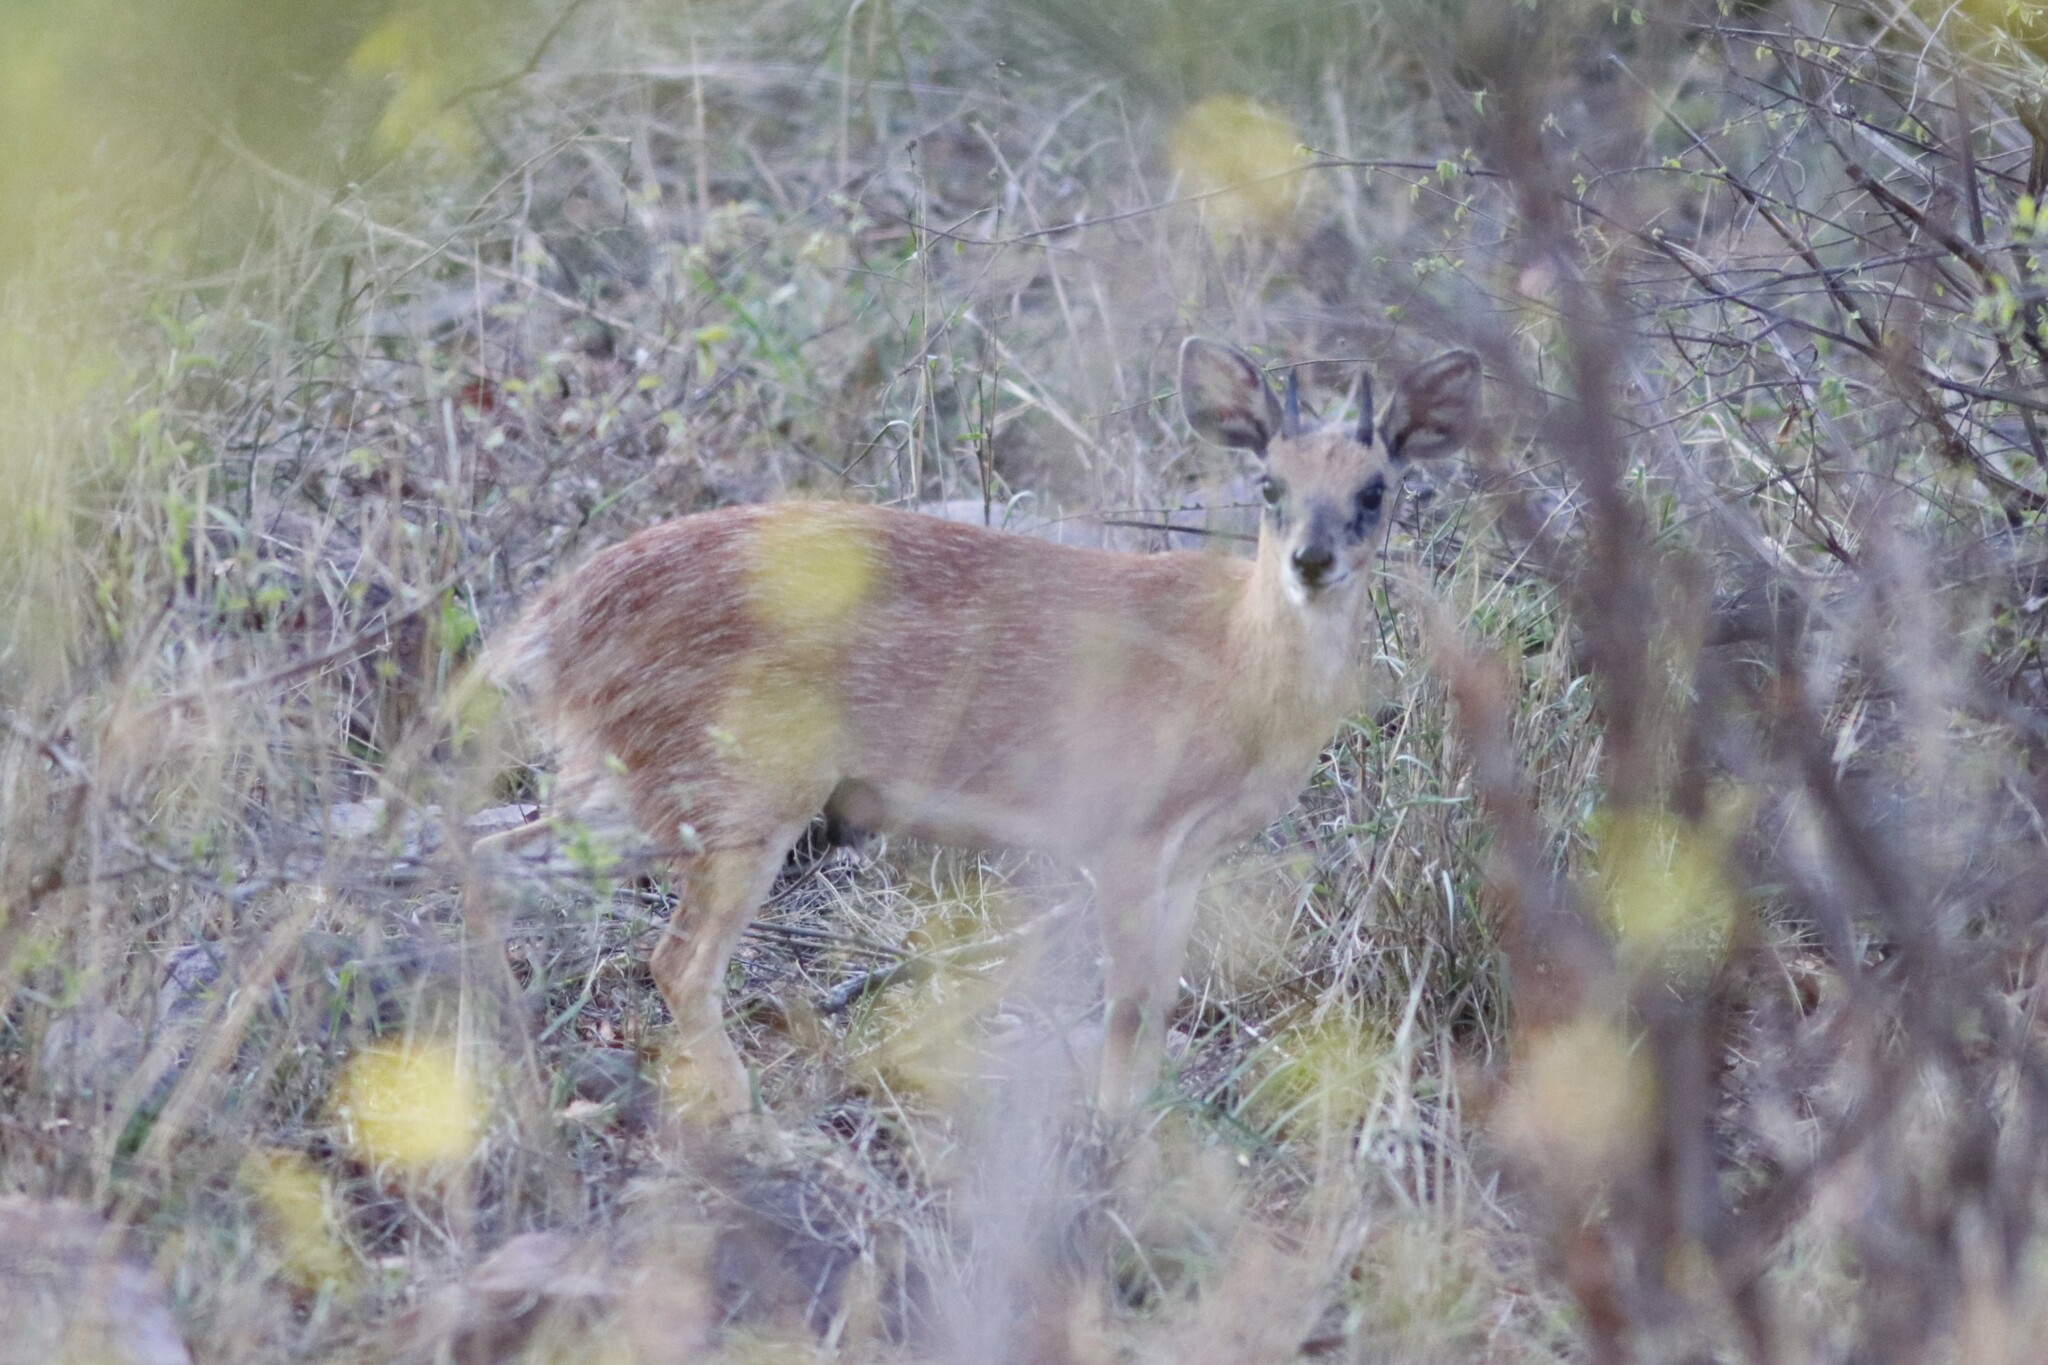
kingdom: Animalia
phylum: Chordata
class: Mammalia
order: Artiodactyla
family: Bovidae
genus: Raphicerus
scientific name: Raphicerus sharpei
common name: Sharpe's grysbok
